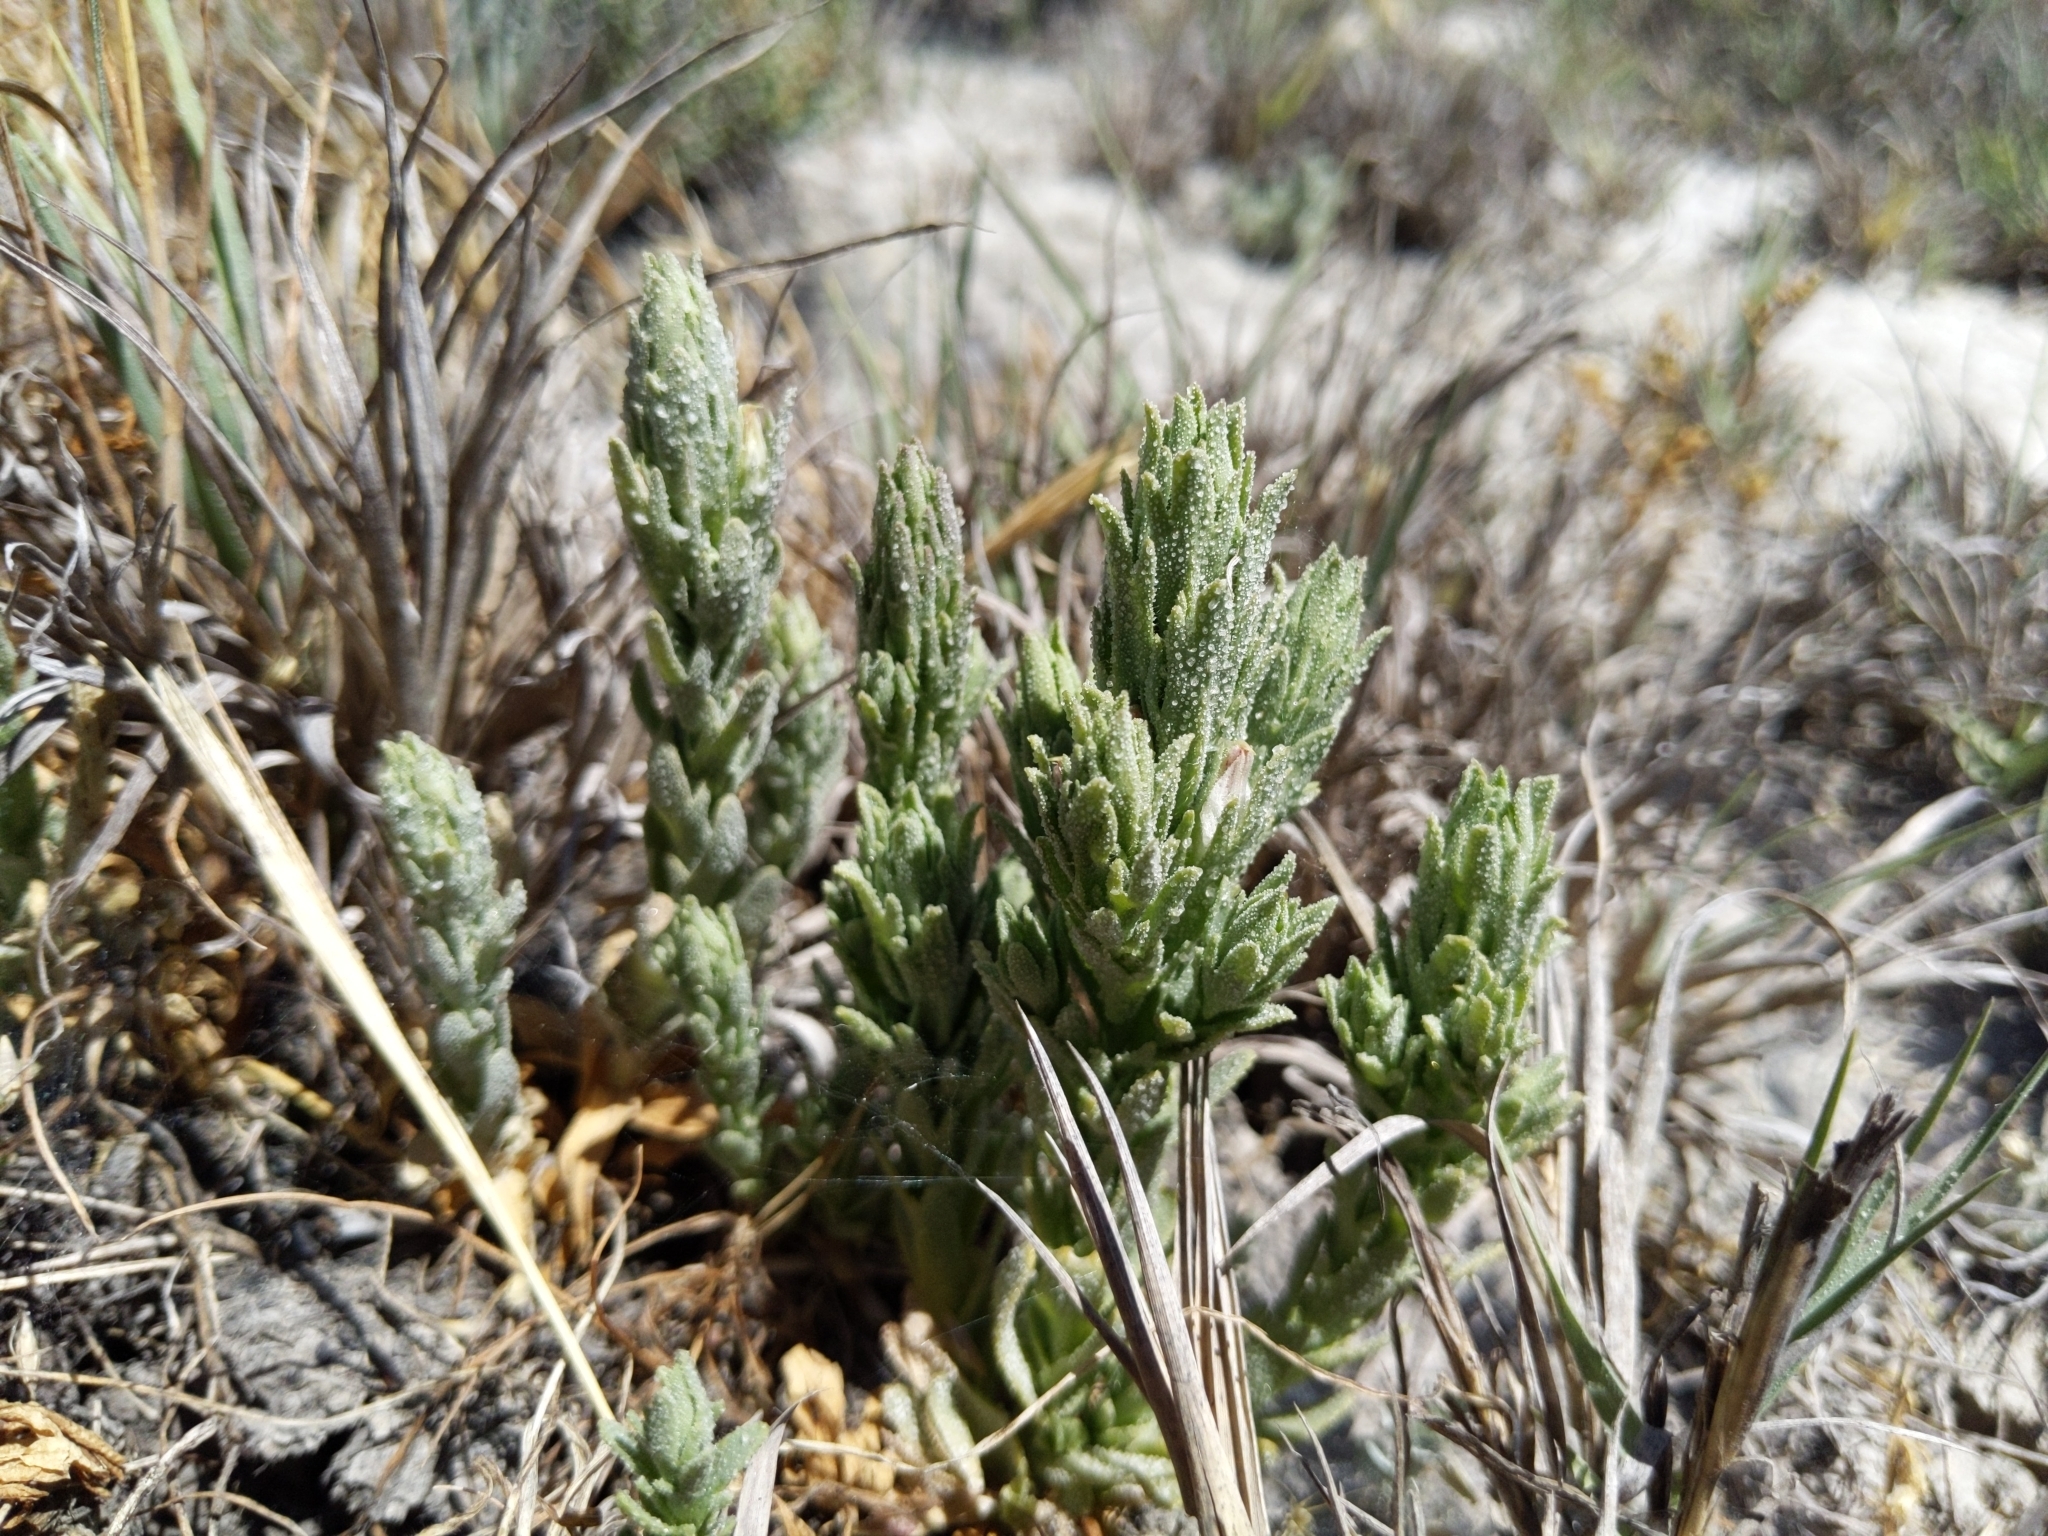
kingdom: Plantae
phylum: Tracheophyta
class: Magnoliopsida
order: Lamiales
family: Orobanchaceae
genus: Chloropyron
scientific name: Chloropyron palmatum
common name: Palmate salty bird's-beak
